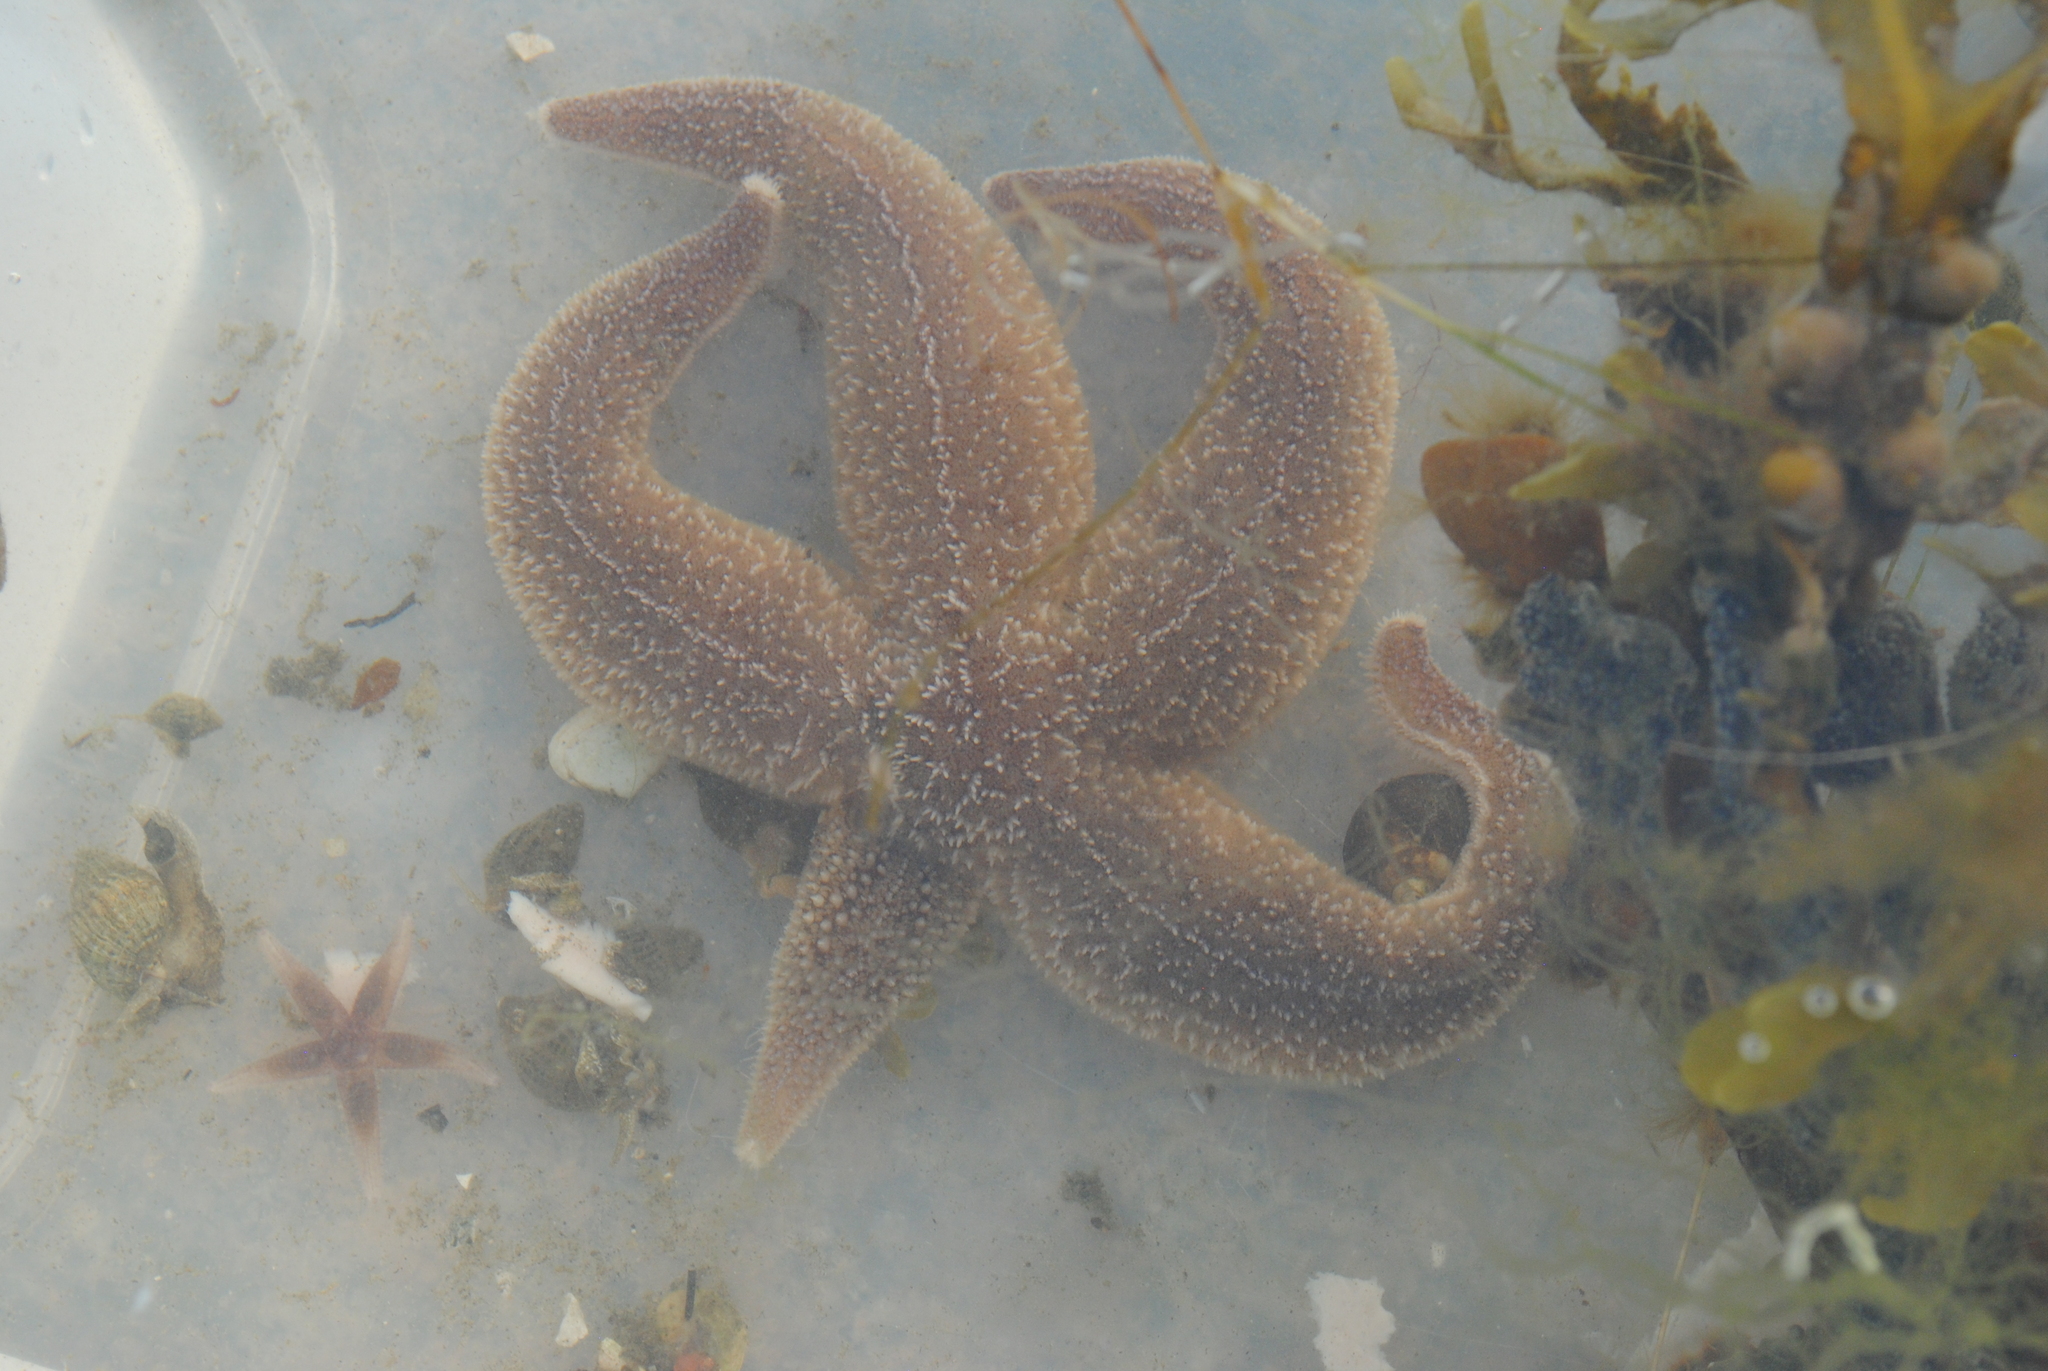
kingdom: Animalia
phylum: Echinodermata
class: Asteroidea
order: Forcipulatida
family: Asteriidae
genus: Asterias
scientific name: Asterias rubens
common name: Common starfish
